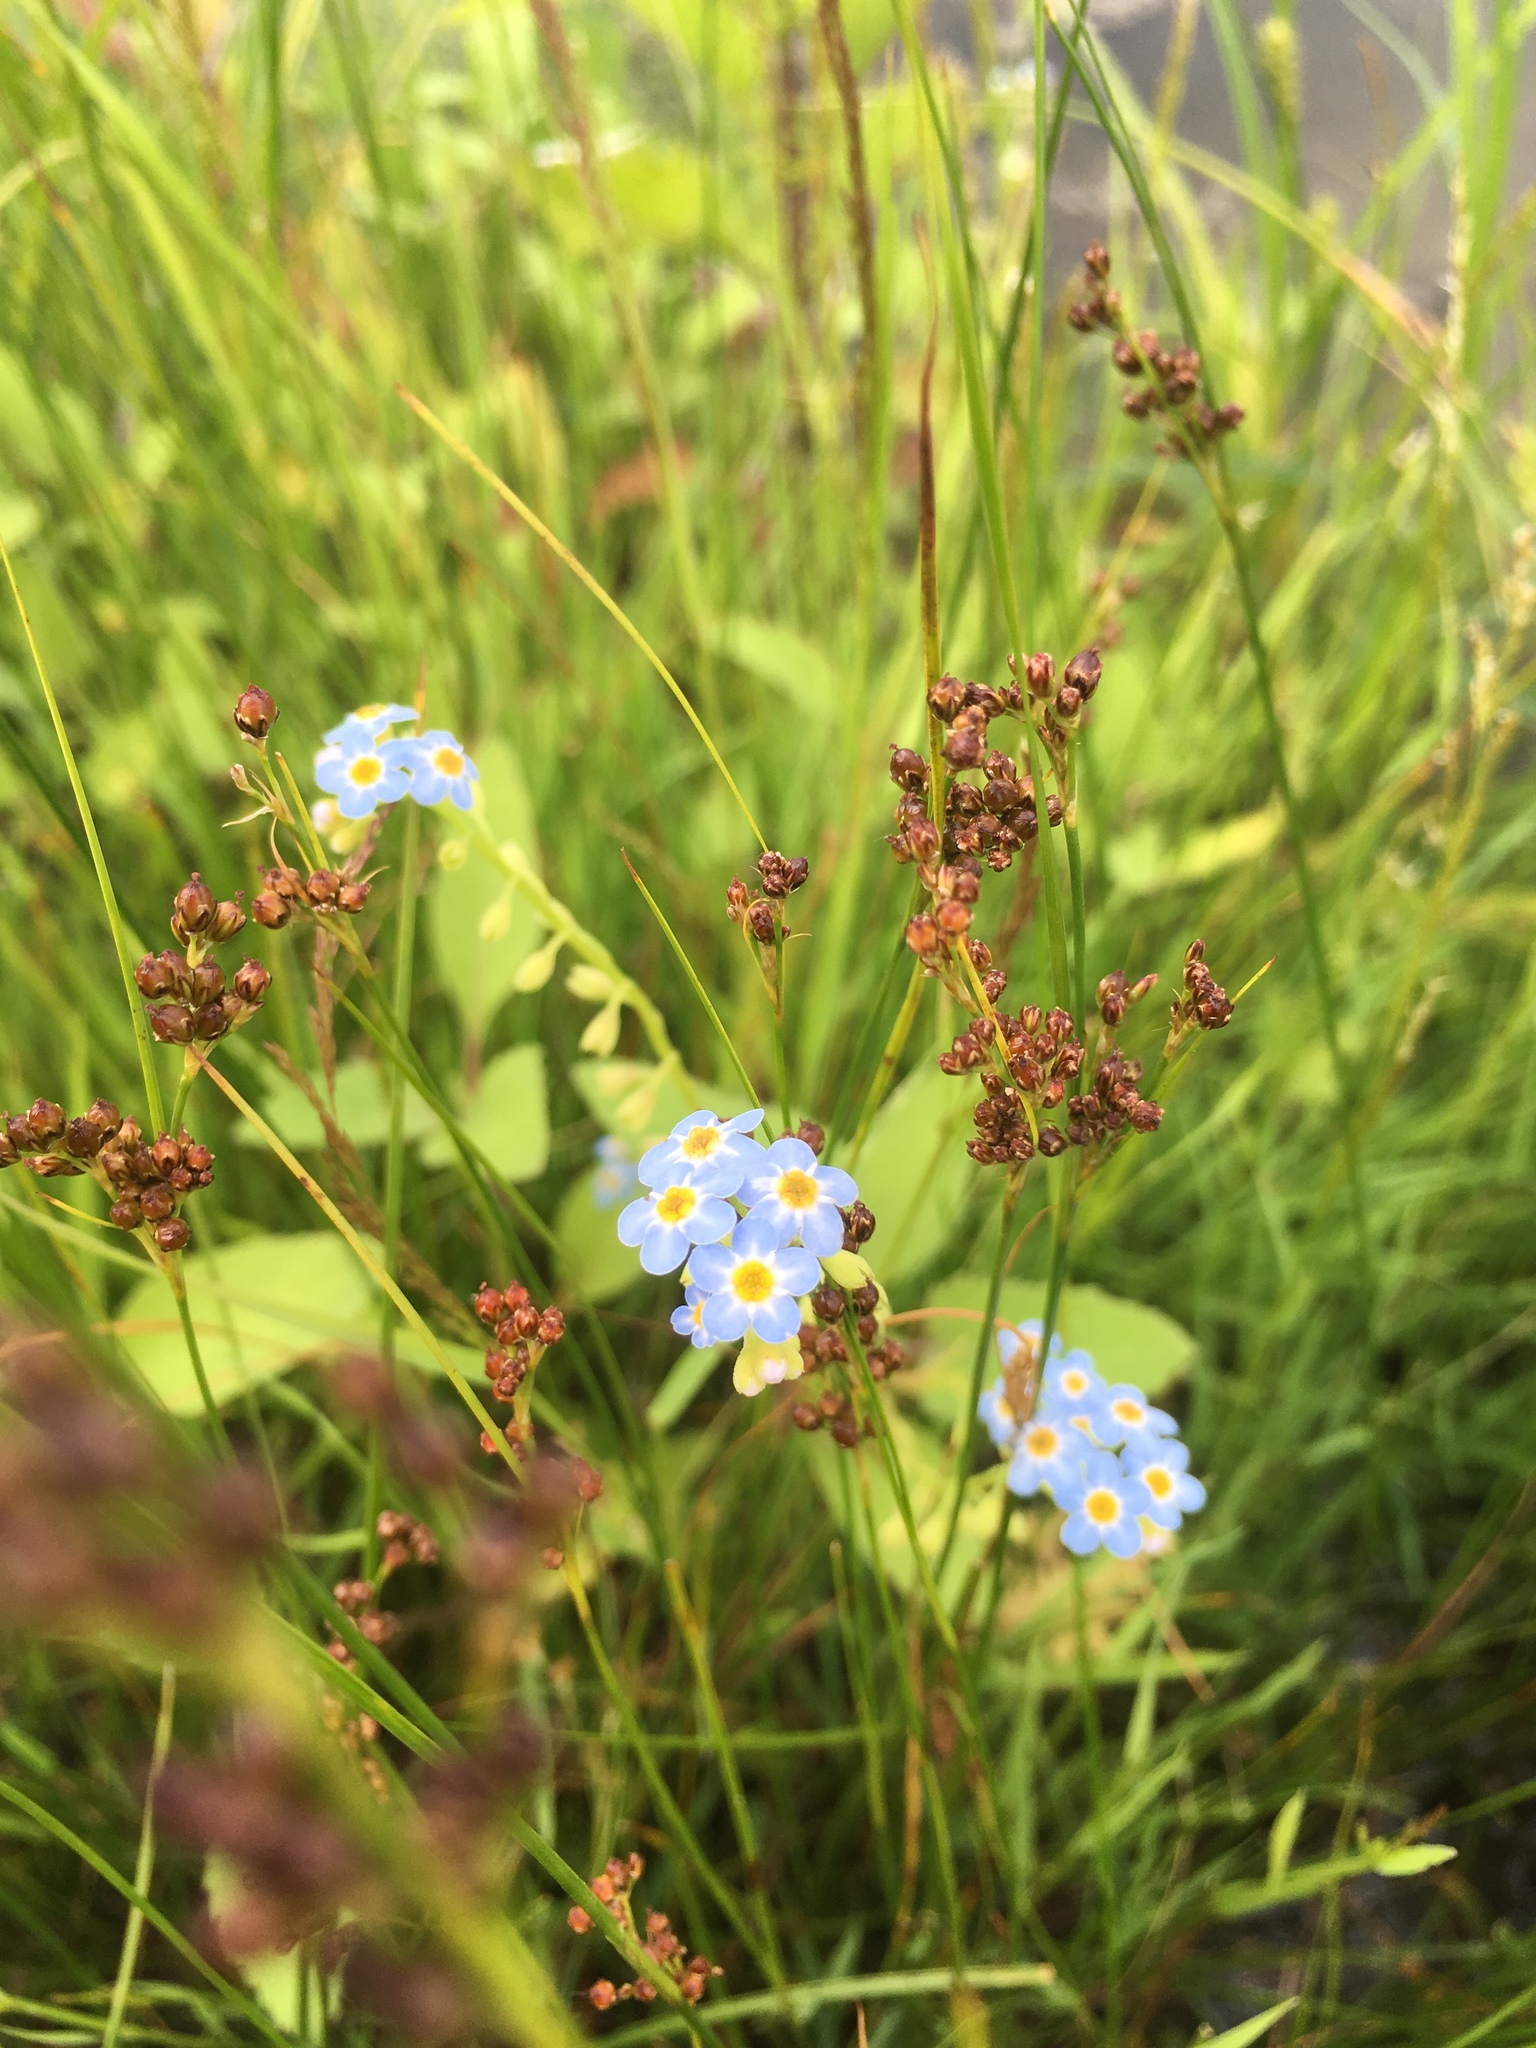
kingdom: Plantae
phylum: Tracheophyta
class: Magnoliopsida
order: Boraginales
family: Boraginaceae
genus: Myosotis
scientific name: Myosotis scorpioides
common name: Water forget-me-not
